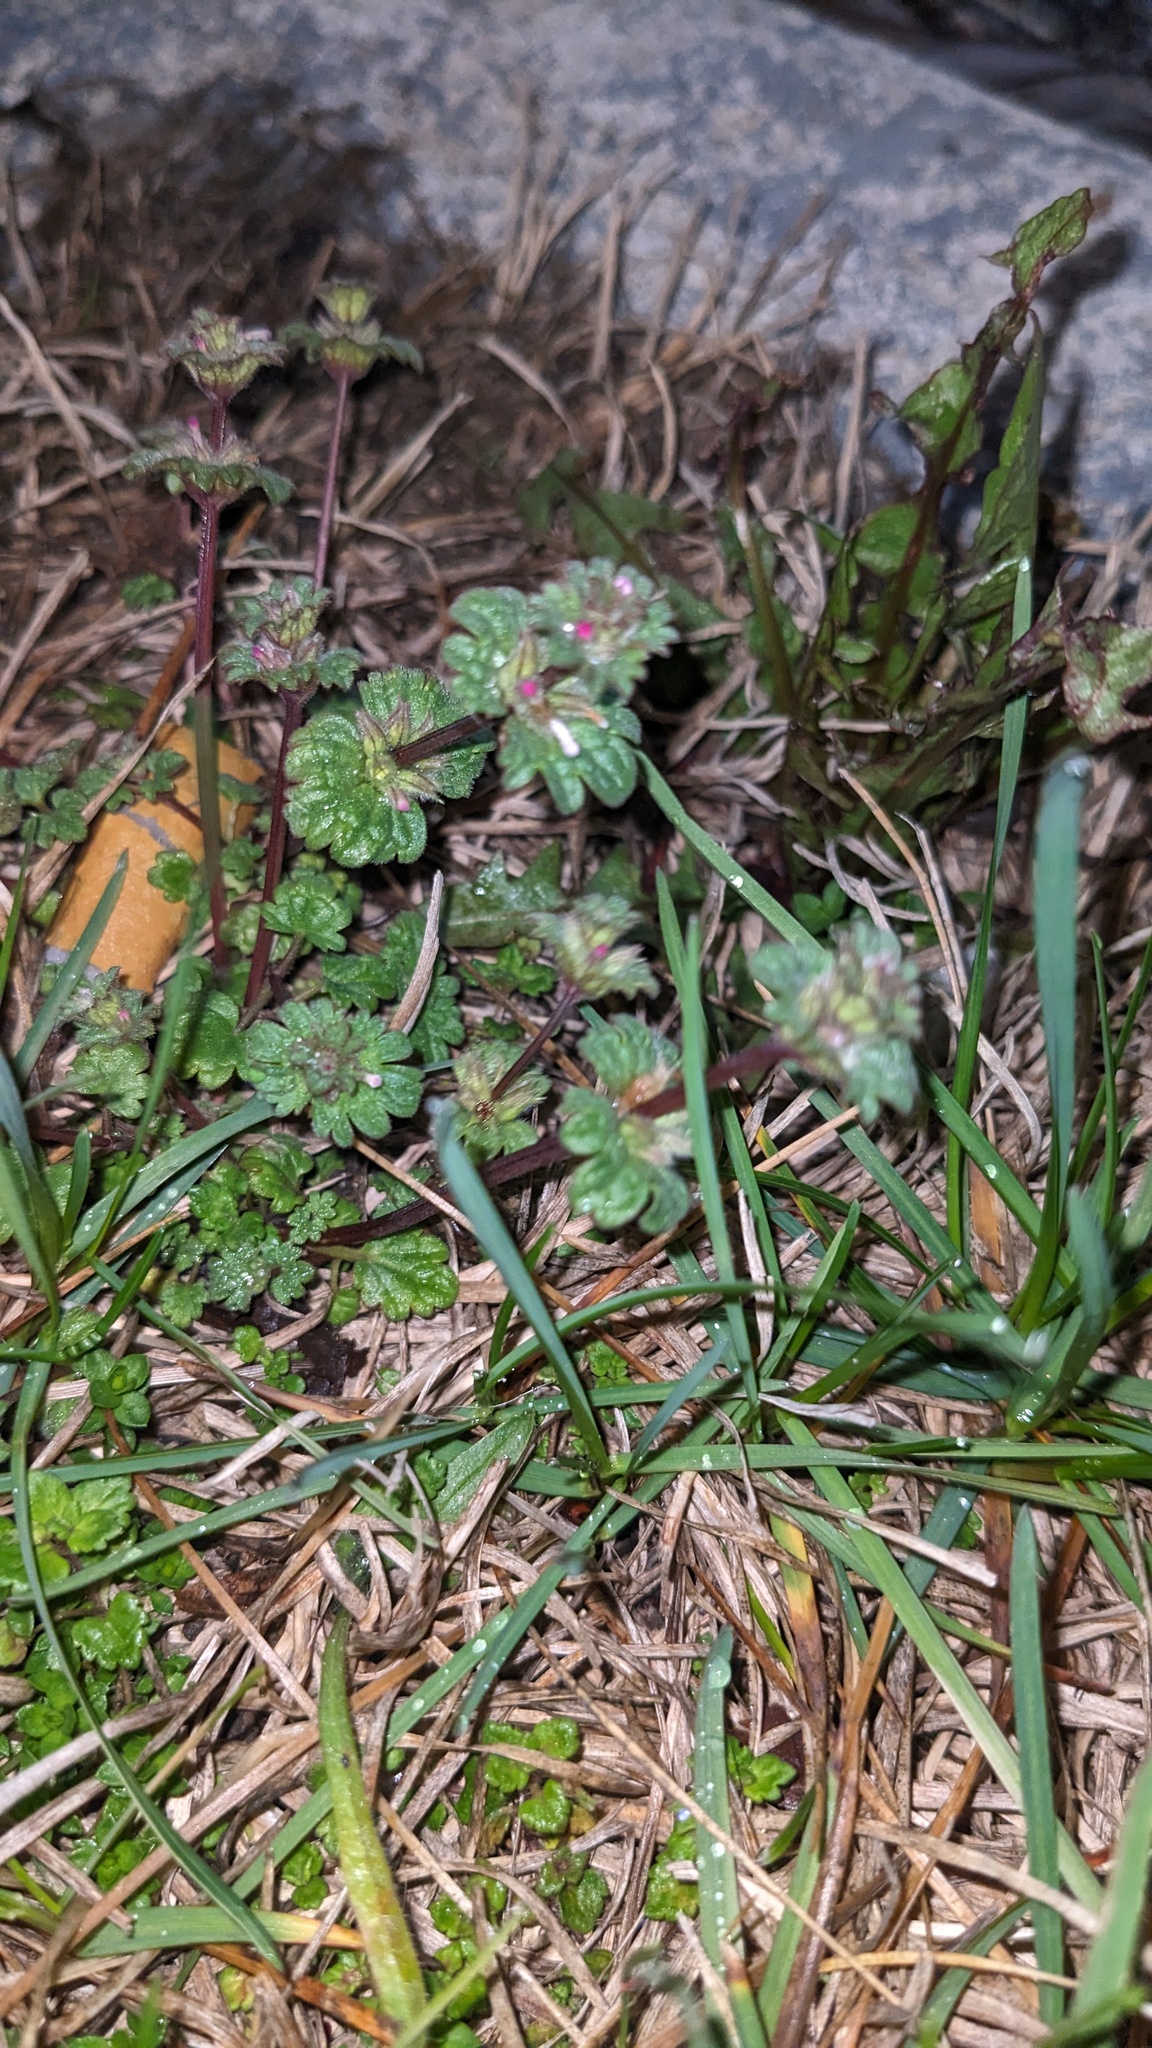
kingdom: Plantae
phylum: Tracheophyta
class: Magnoliopsida
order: Lamiales
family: Lamiaceae
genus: Lamium
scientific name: Lamium amplexicaule
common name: Henbit dead-nettle
